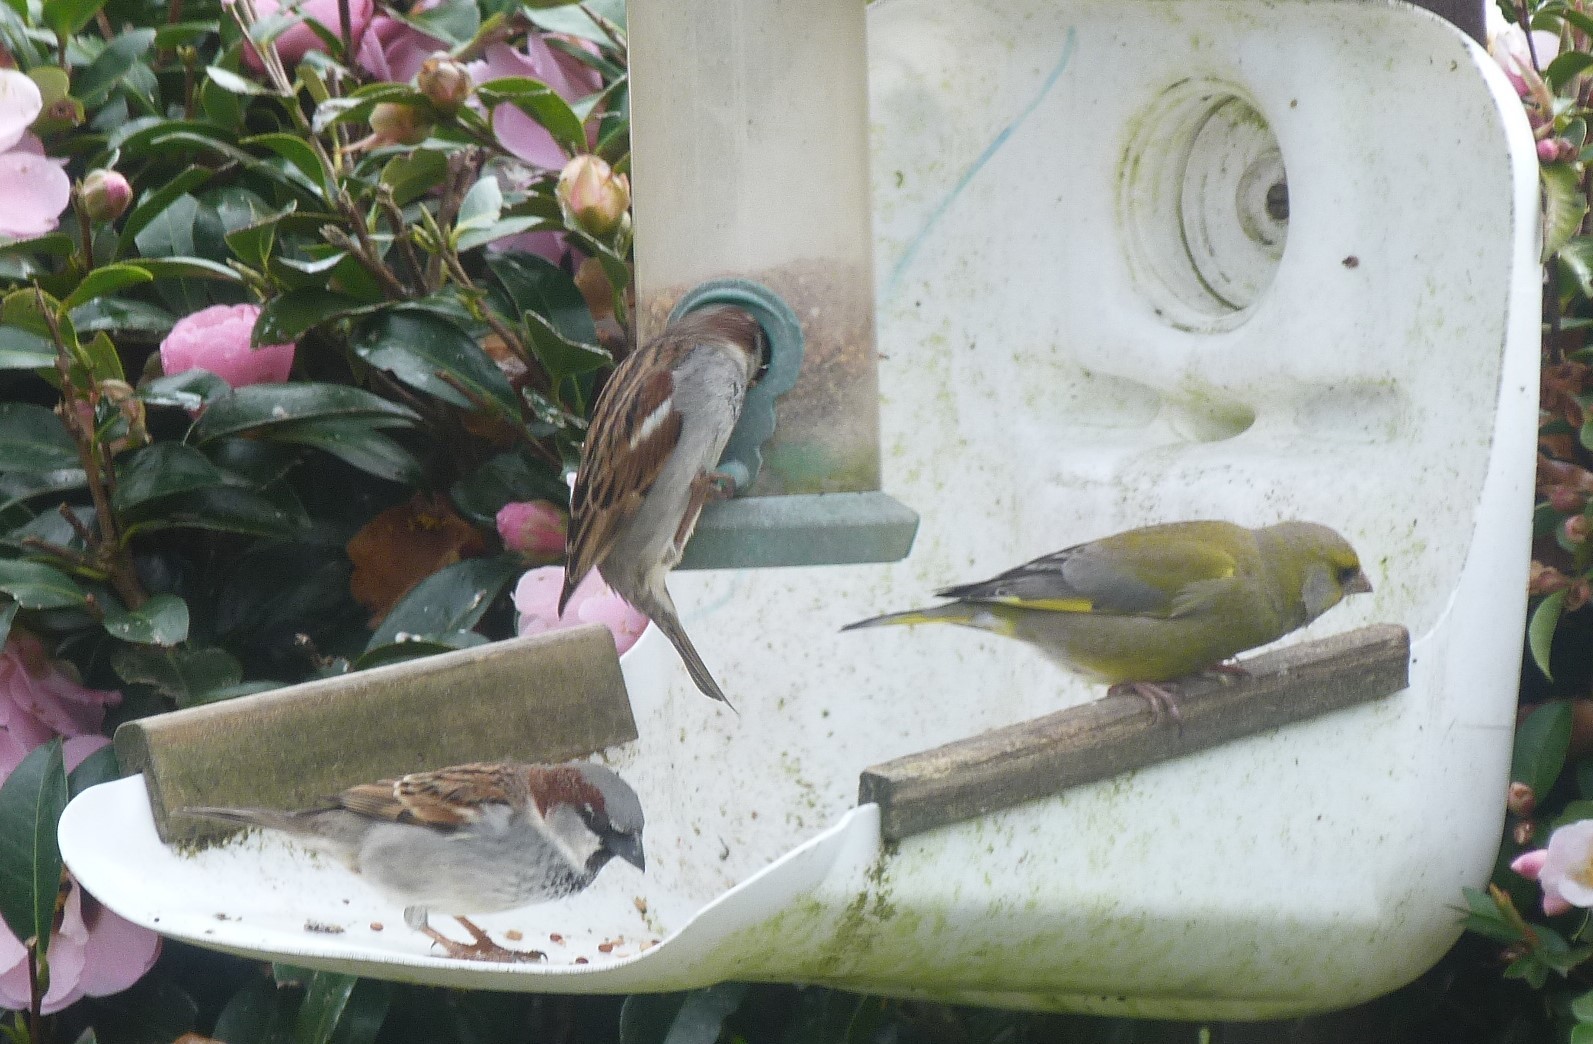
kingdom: Plantae
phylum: Tracheophyta
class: Liliopsida
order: Poales
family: Poaceae
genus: Chloris
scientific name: Chloris chloris
